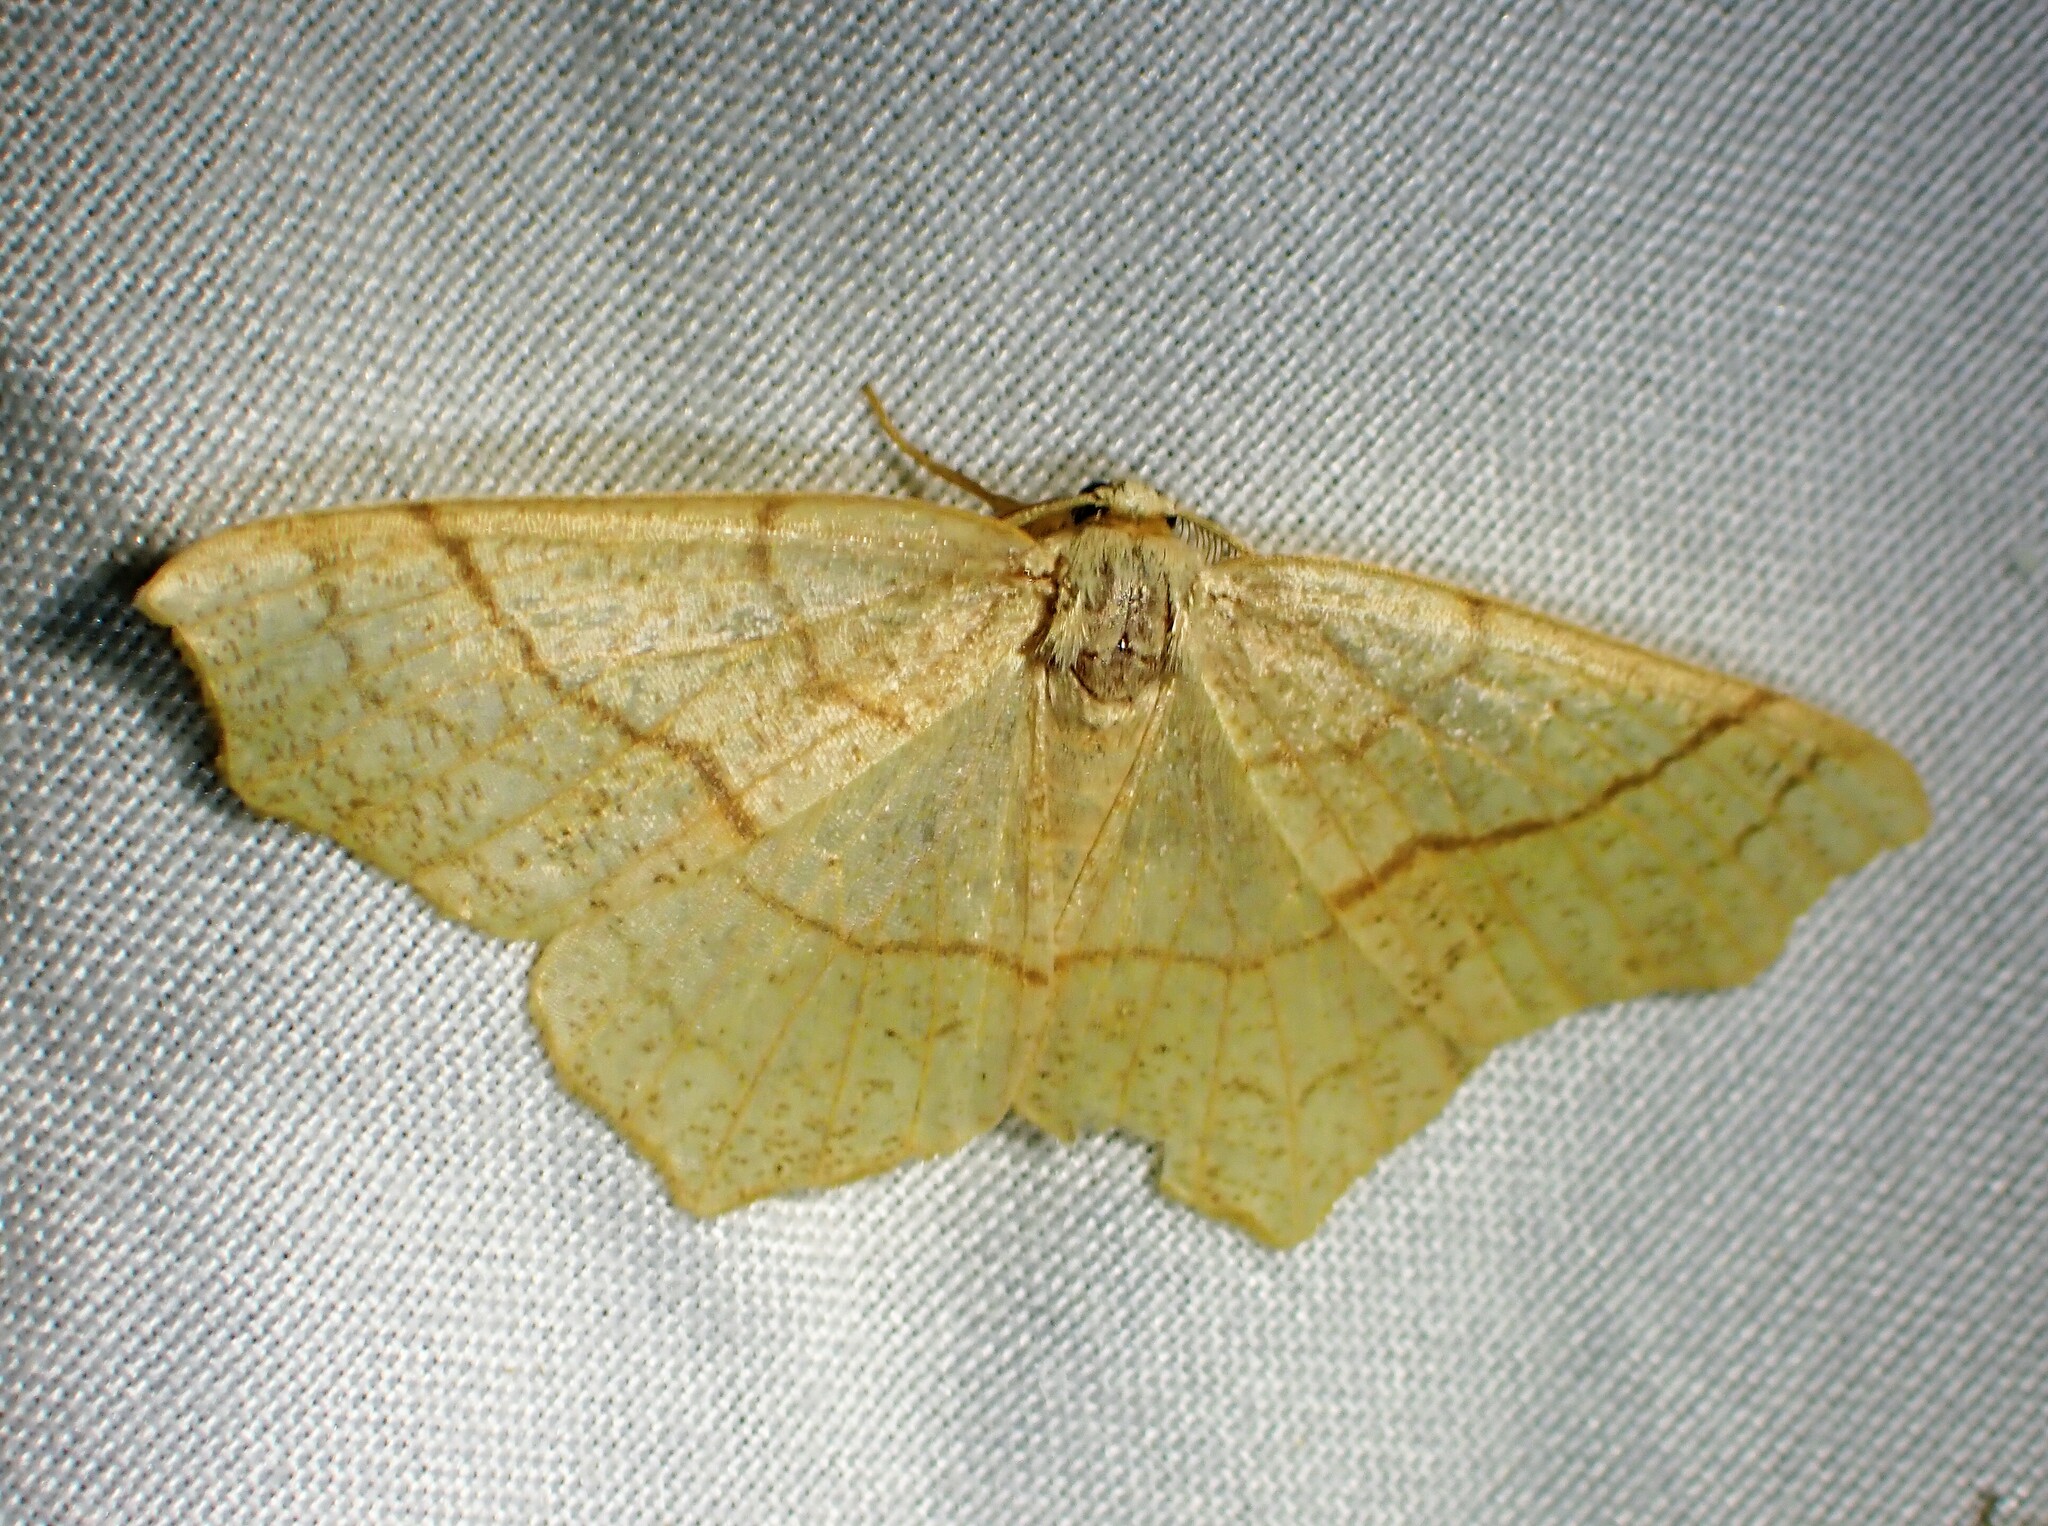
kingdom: Animalia
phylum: Arthropoda
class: Insecta
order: Lepidoptera
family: Geometridae
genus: Besma
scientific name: Besma quercivoraria
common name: Oak besma
